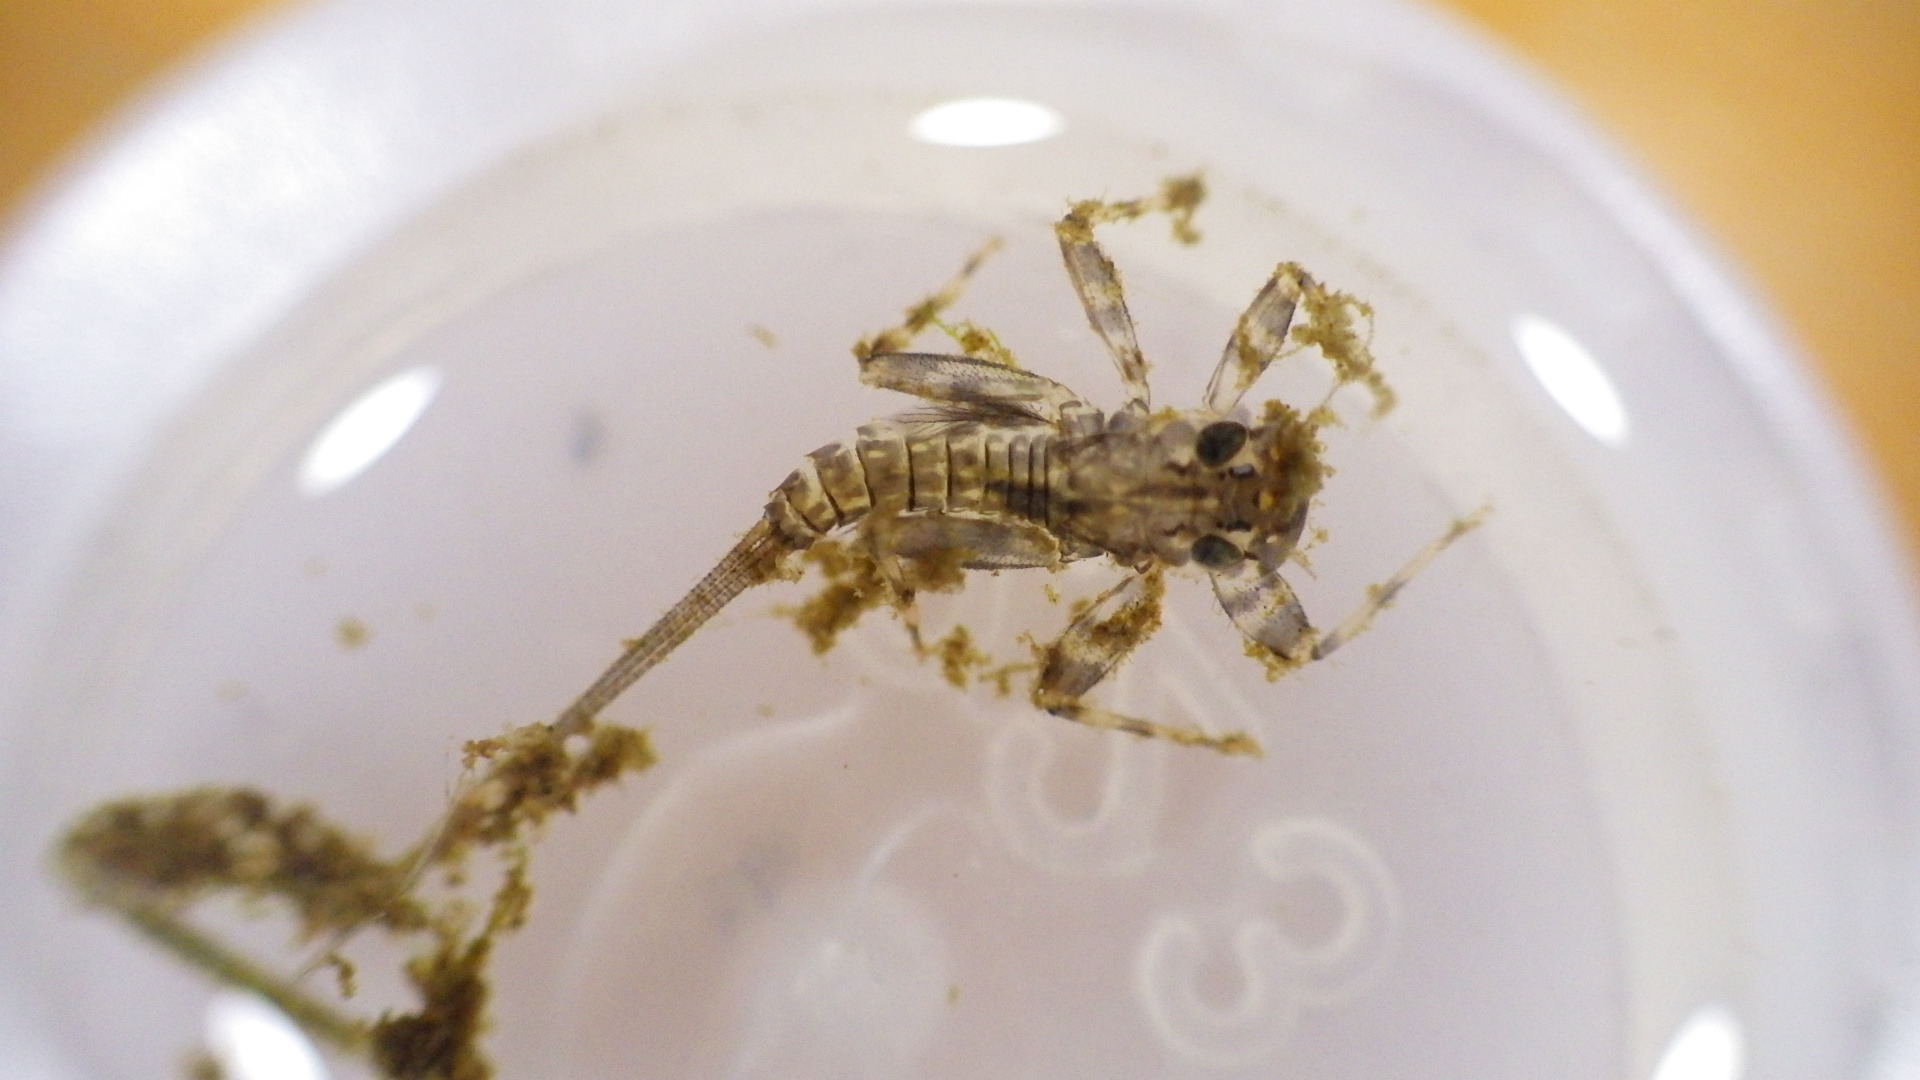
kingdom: Animalia
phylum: Arthropoda
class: Insecta
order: Ephemeroptera
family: Heptageniidae
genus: Stenacron
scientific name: Stenacron interpunctatum
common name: Orange cahill
